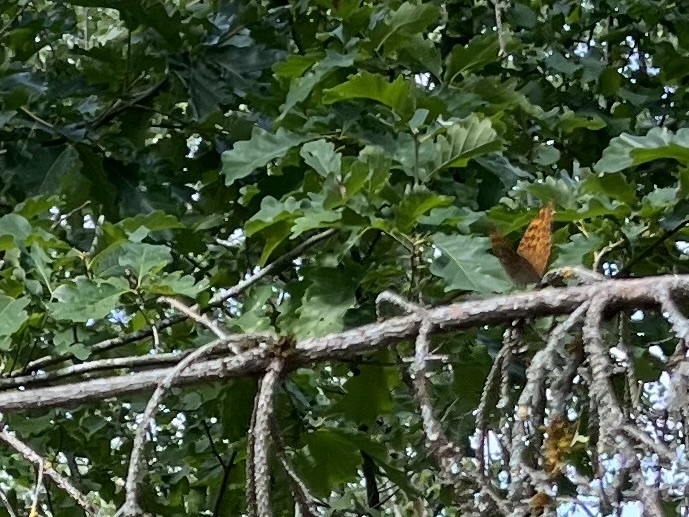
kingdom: Animalia
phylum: Arthropoda
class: Insecta
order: Lepidoptera
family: Nymphalidae
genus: Argynnis
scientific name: Argynnis paphia
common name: Silver-washed fritillary
